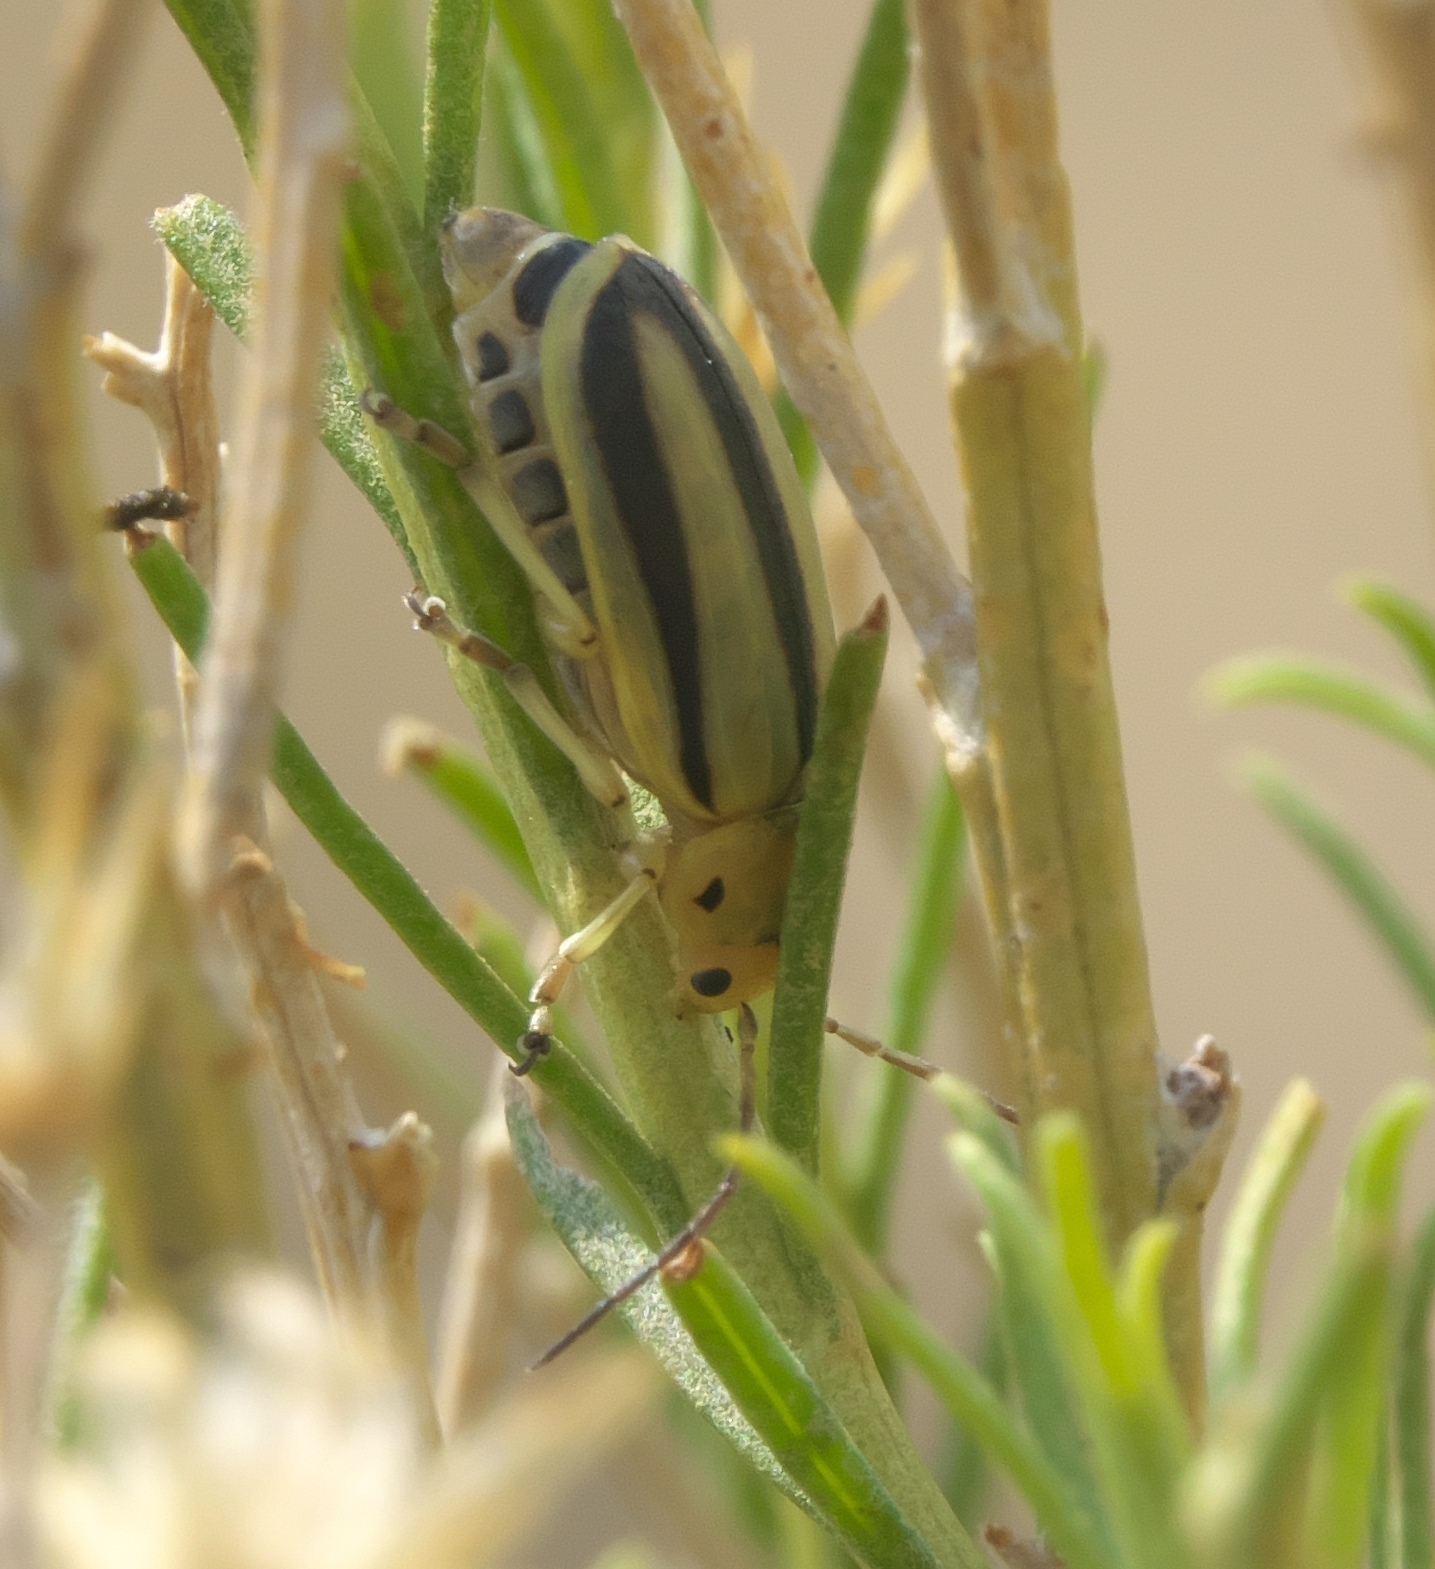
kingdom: Animalia
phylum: Arthropoda
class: Insecta
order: Coleoptera
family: Chrysomelidae
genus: Trirhabda
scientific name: Trirhabda nitidicollis
